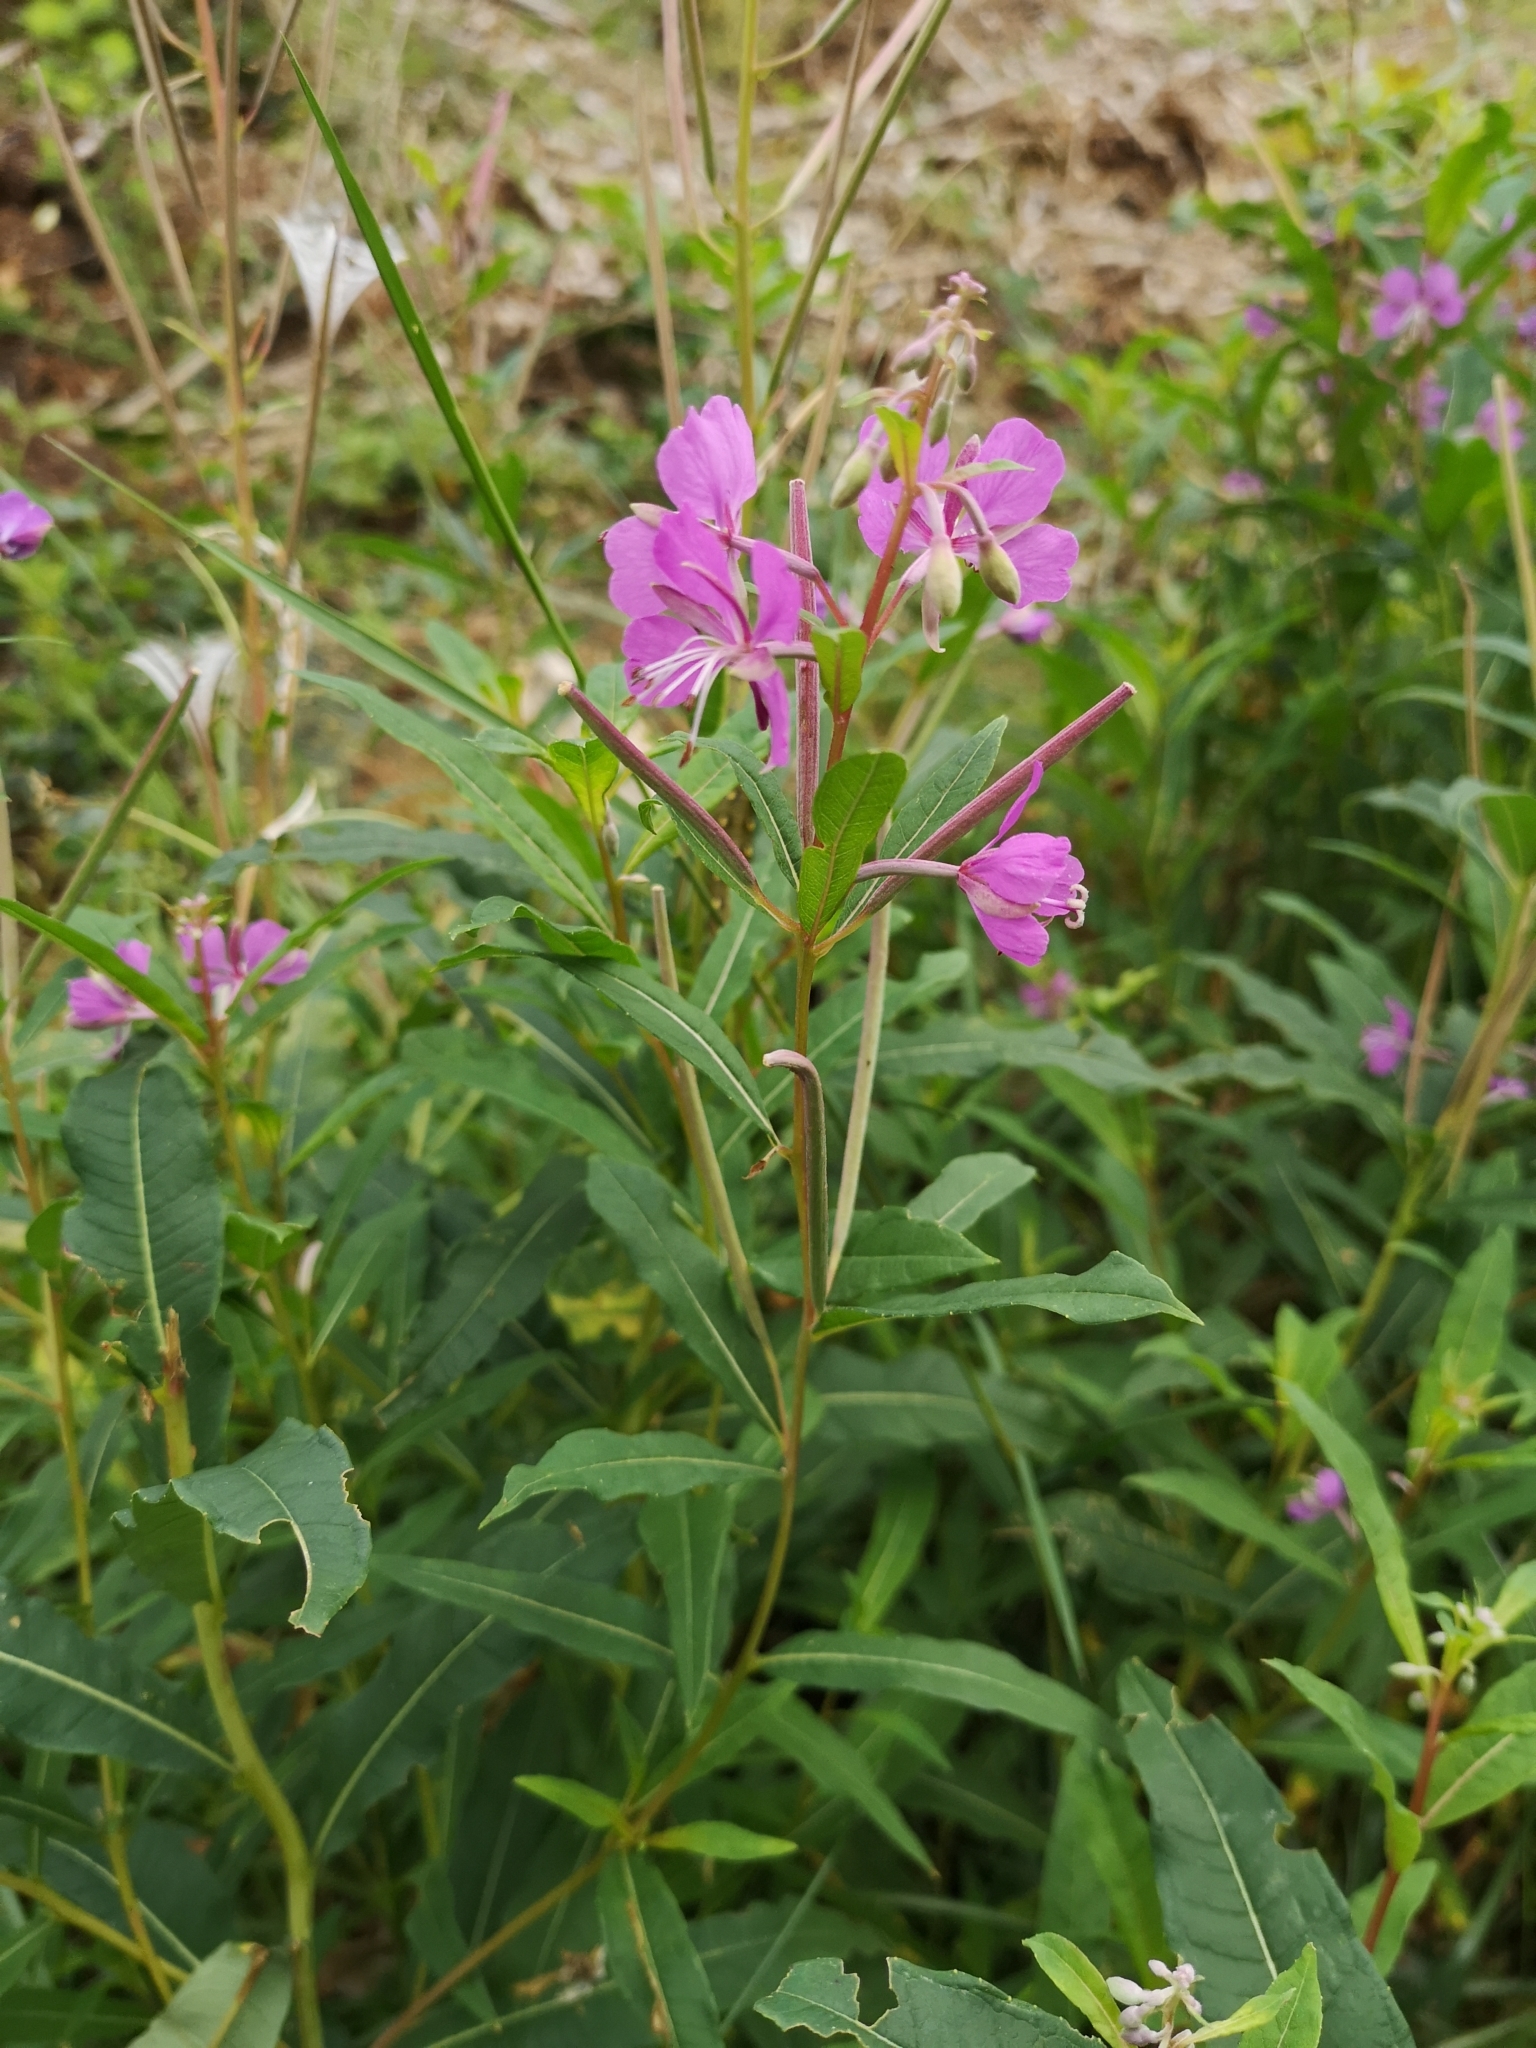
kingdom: Plantae
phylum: Tracheophyta
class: Magnoliopsida
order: Myrtales
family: Onagraceae
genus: Chamaenerion
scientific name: Chamaenerion angustifolium
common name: Fireweed
